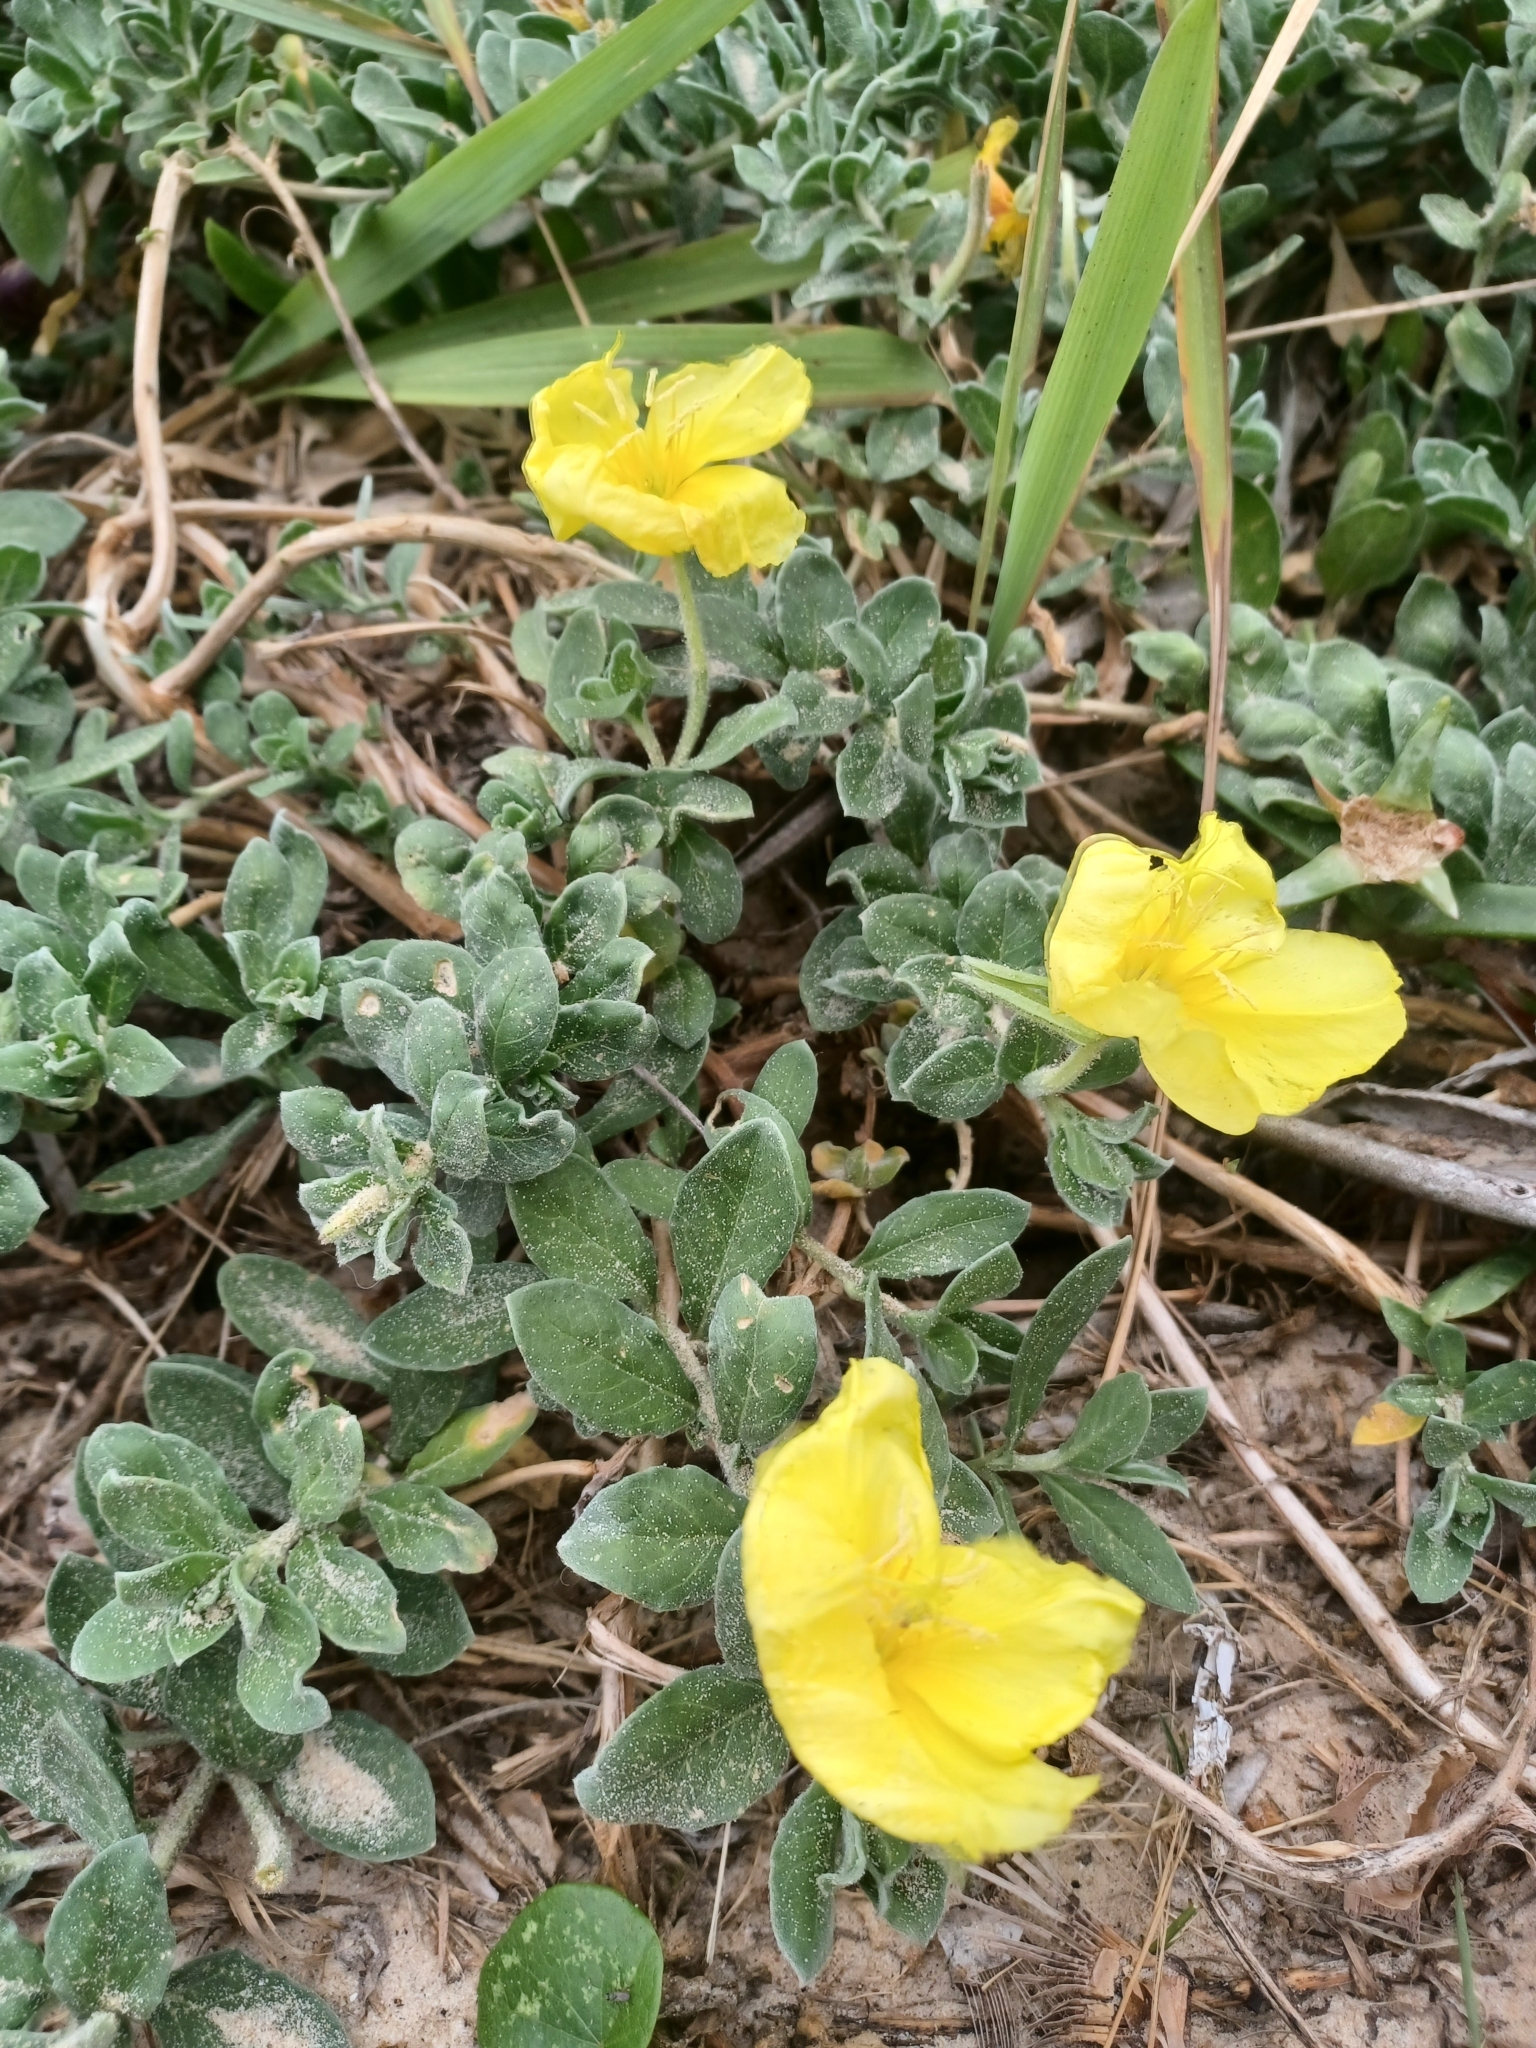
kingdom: Plantae
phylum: Tracheophyta
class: Magnoliopsida
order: Myrtales
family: Onagraceae
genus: Oenothera
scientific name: Oenothera drummondii
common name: Beach evening-primrose
